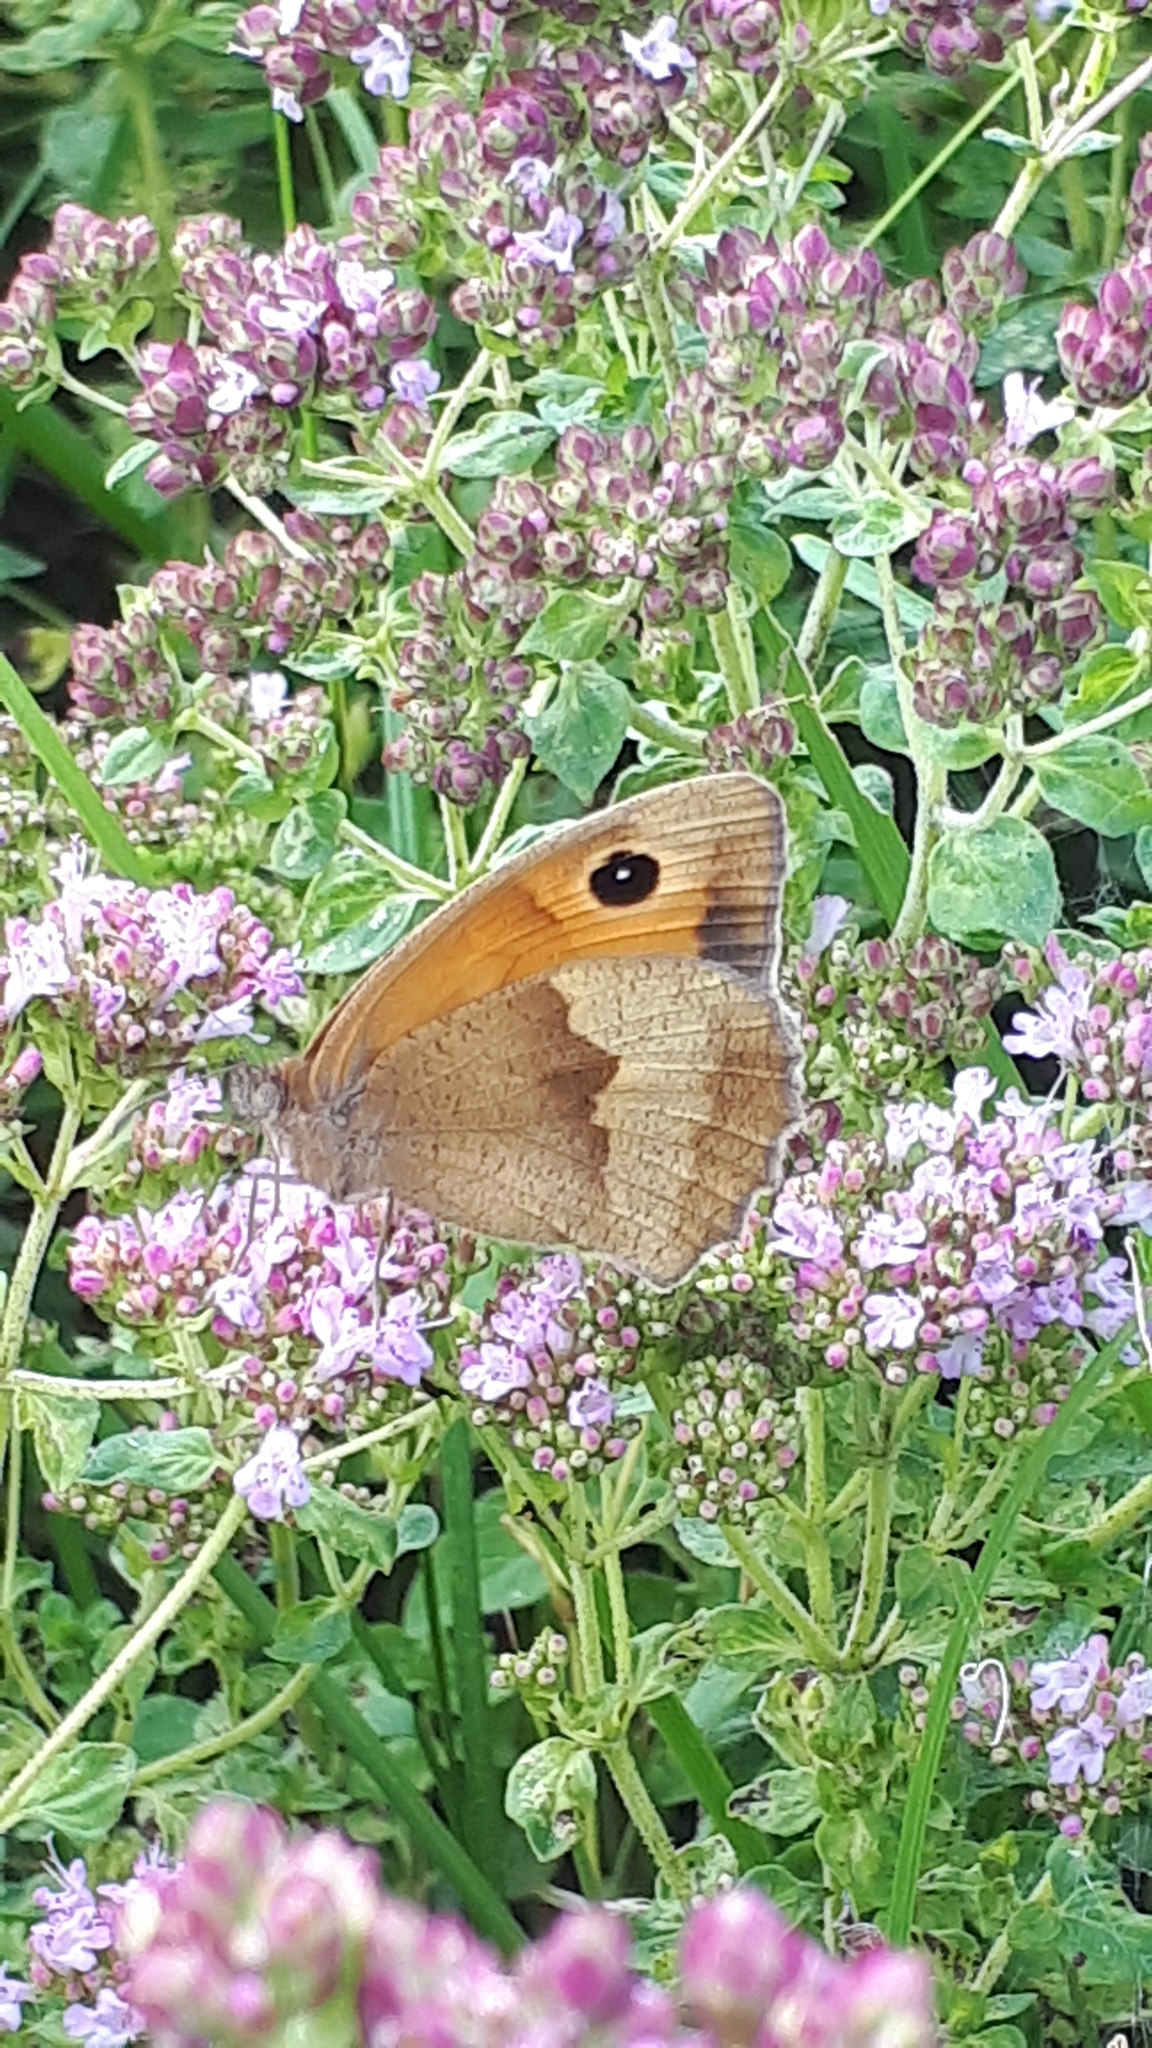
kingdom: Animalia
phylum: Arthropoda
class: Insecta
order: Lepidoptera
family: Nymphalidae
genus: Maniola
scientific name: Maniola jurtina
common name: Meadow brown
